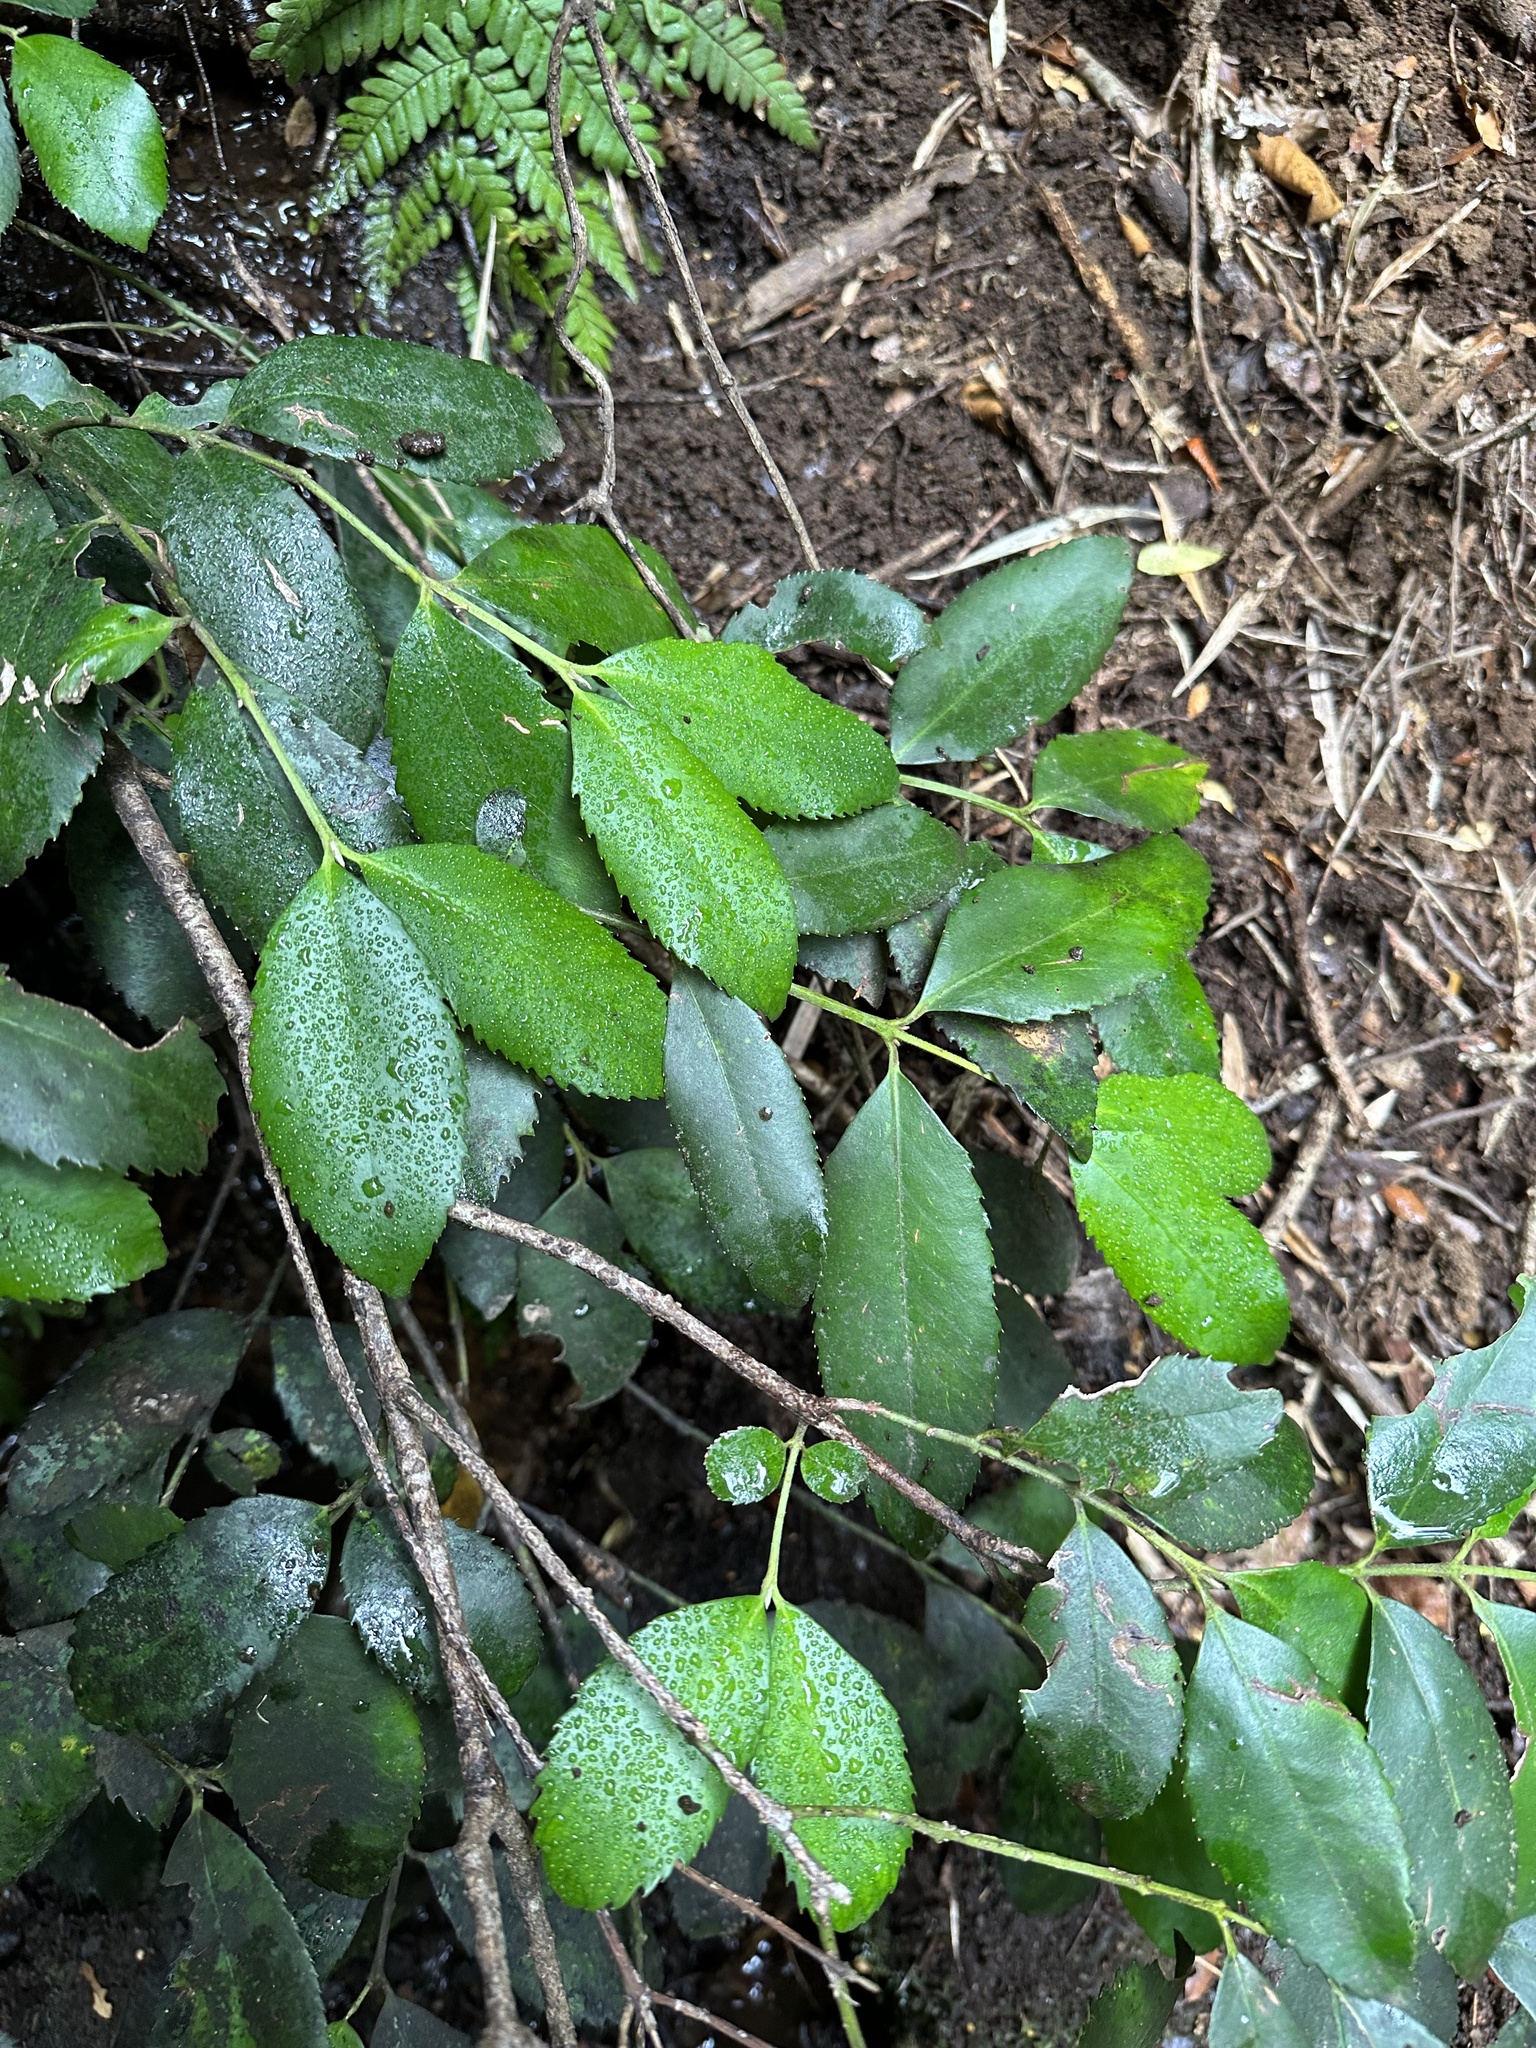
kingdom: Plantae
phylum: Tracheophyta
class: Magnoliopsida
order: Laurales
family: Atherospermataceae
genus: Laureliopsis
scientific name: Laureliopsis philippiana
